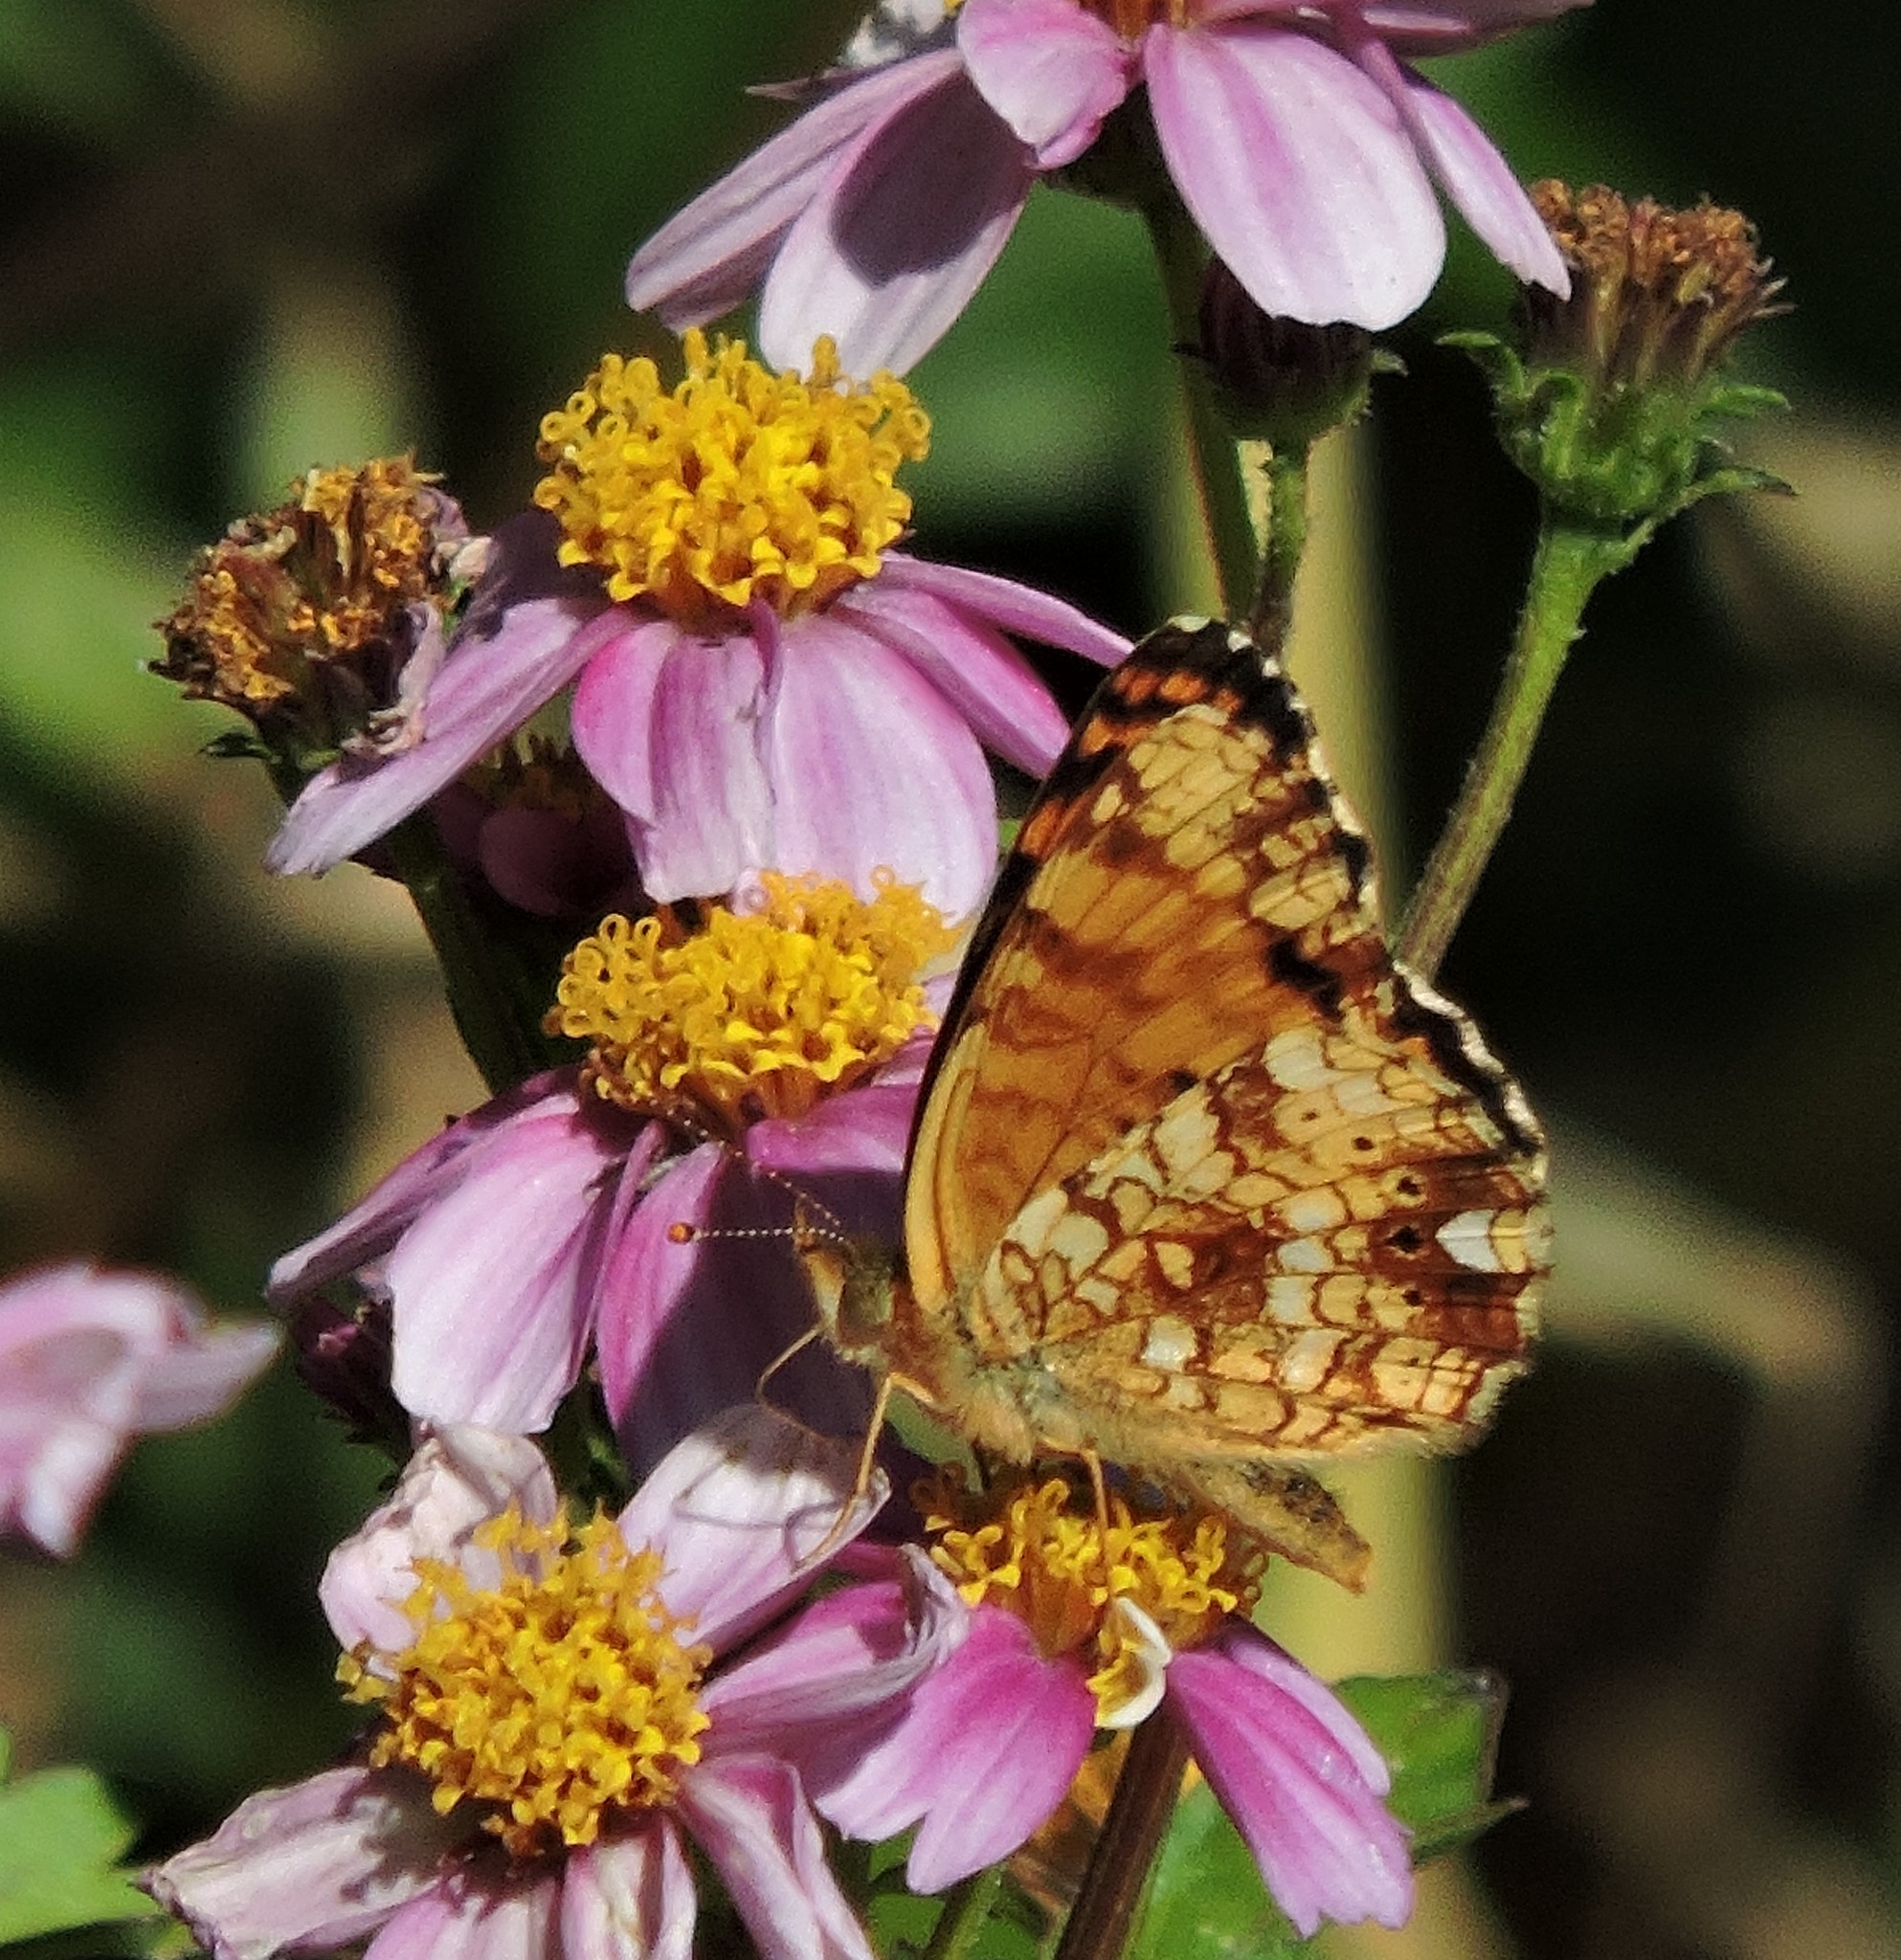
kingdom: Animalia
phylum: Arthropoda
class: Insecta
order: Lepidoptera
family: Nymphalidae
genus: Eresia
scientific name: Eresia aveyrona
